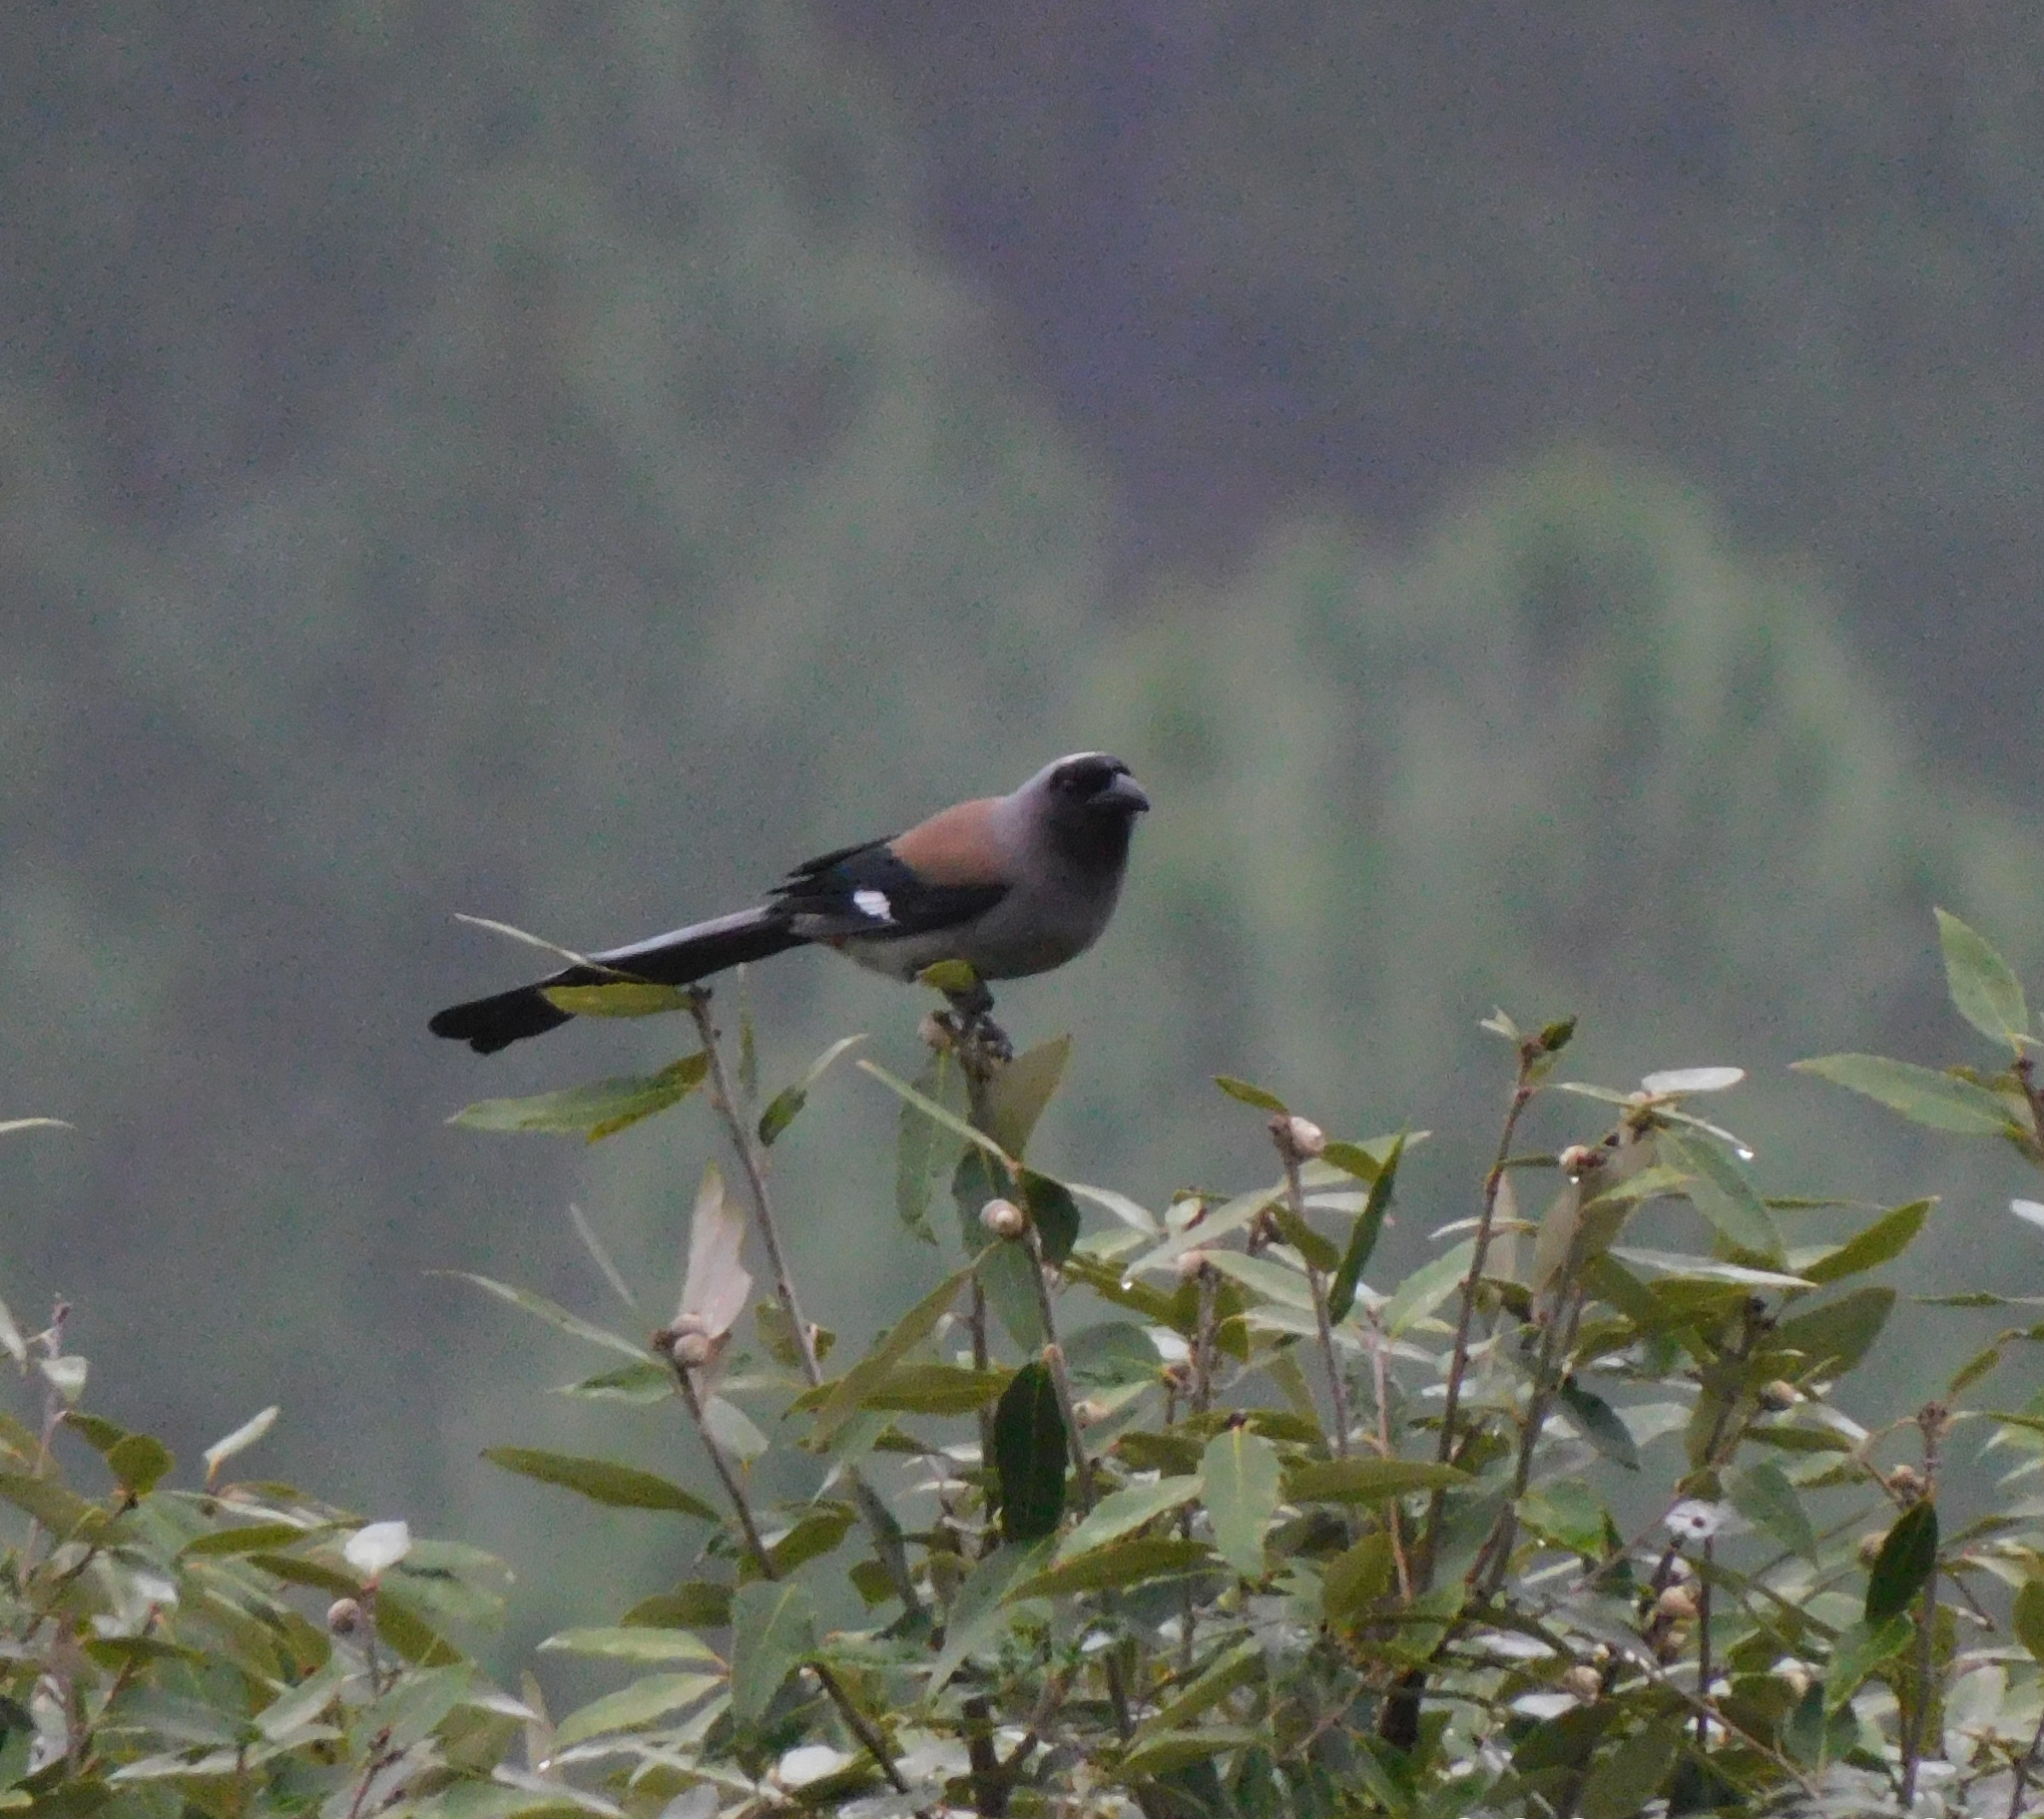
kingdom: Animalia
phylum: Chordata
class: Aves
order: Passeriformes
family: Corvidae
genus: Dendrocitta
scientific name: Dendrocitta formosae
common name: Grey treepie
